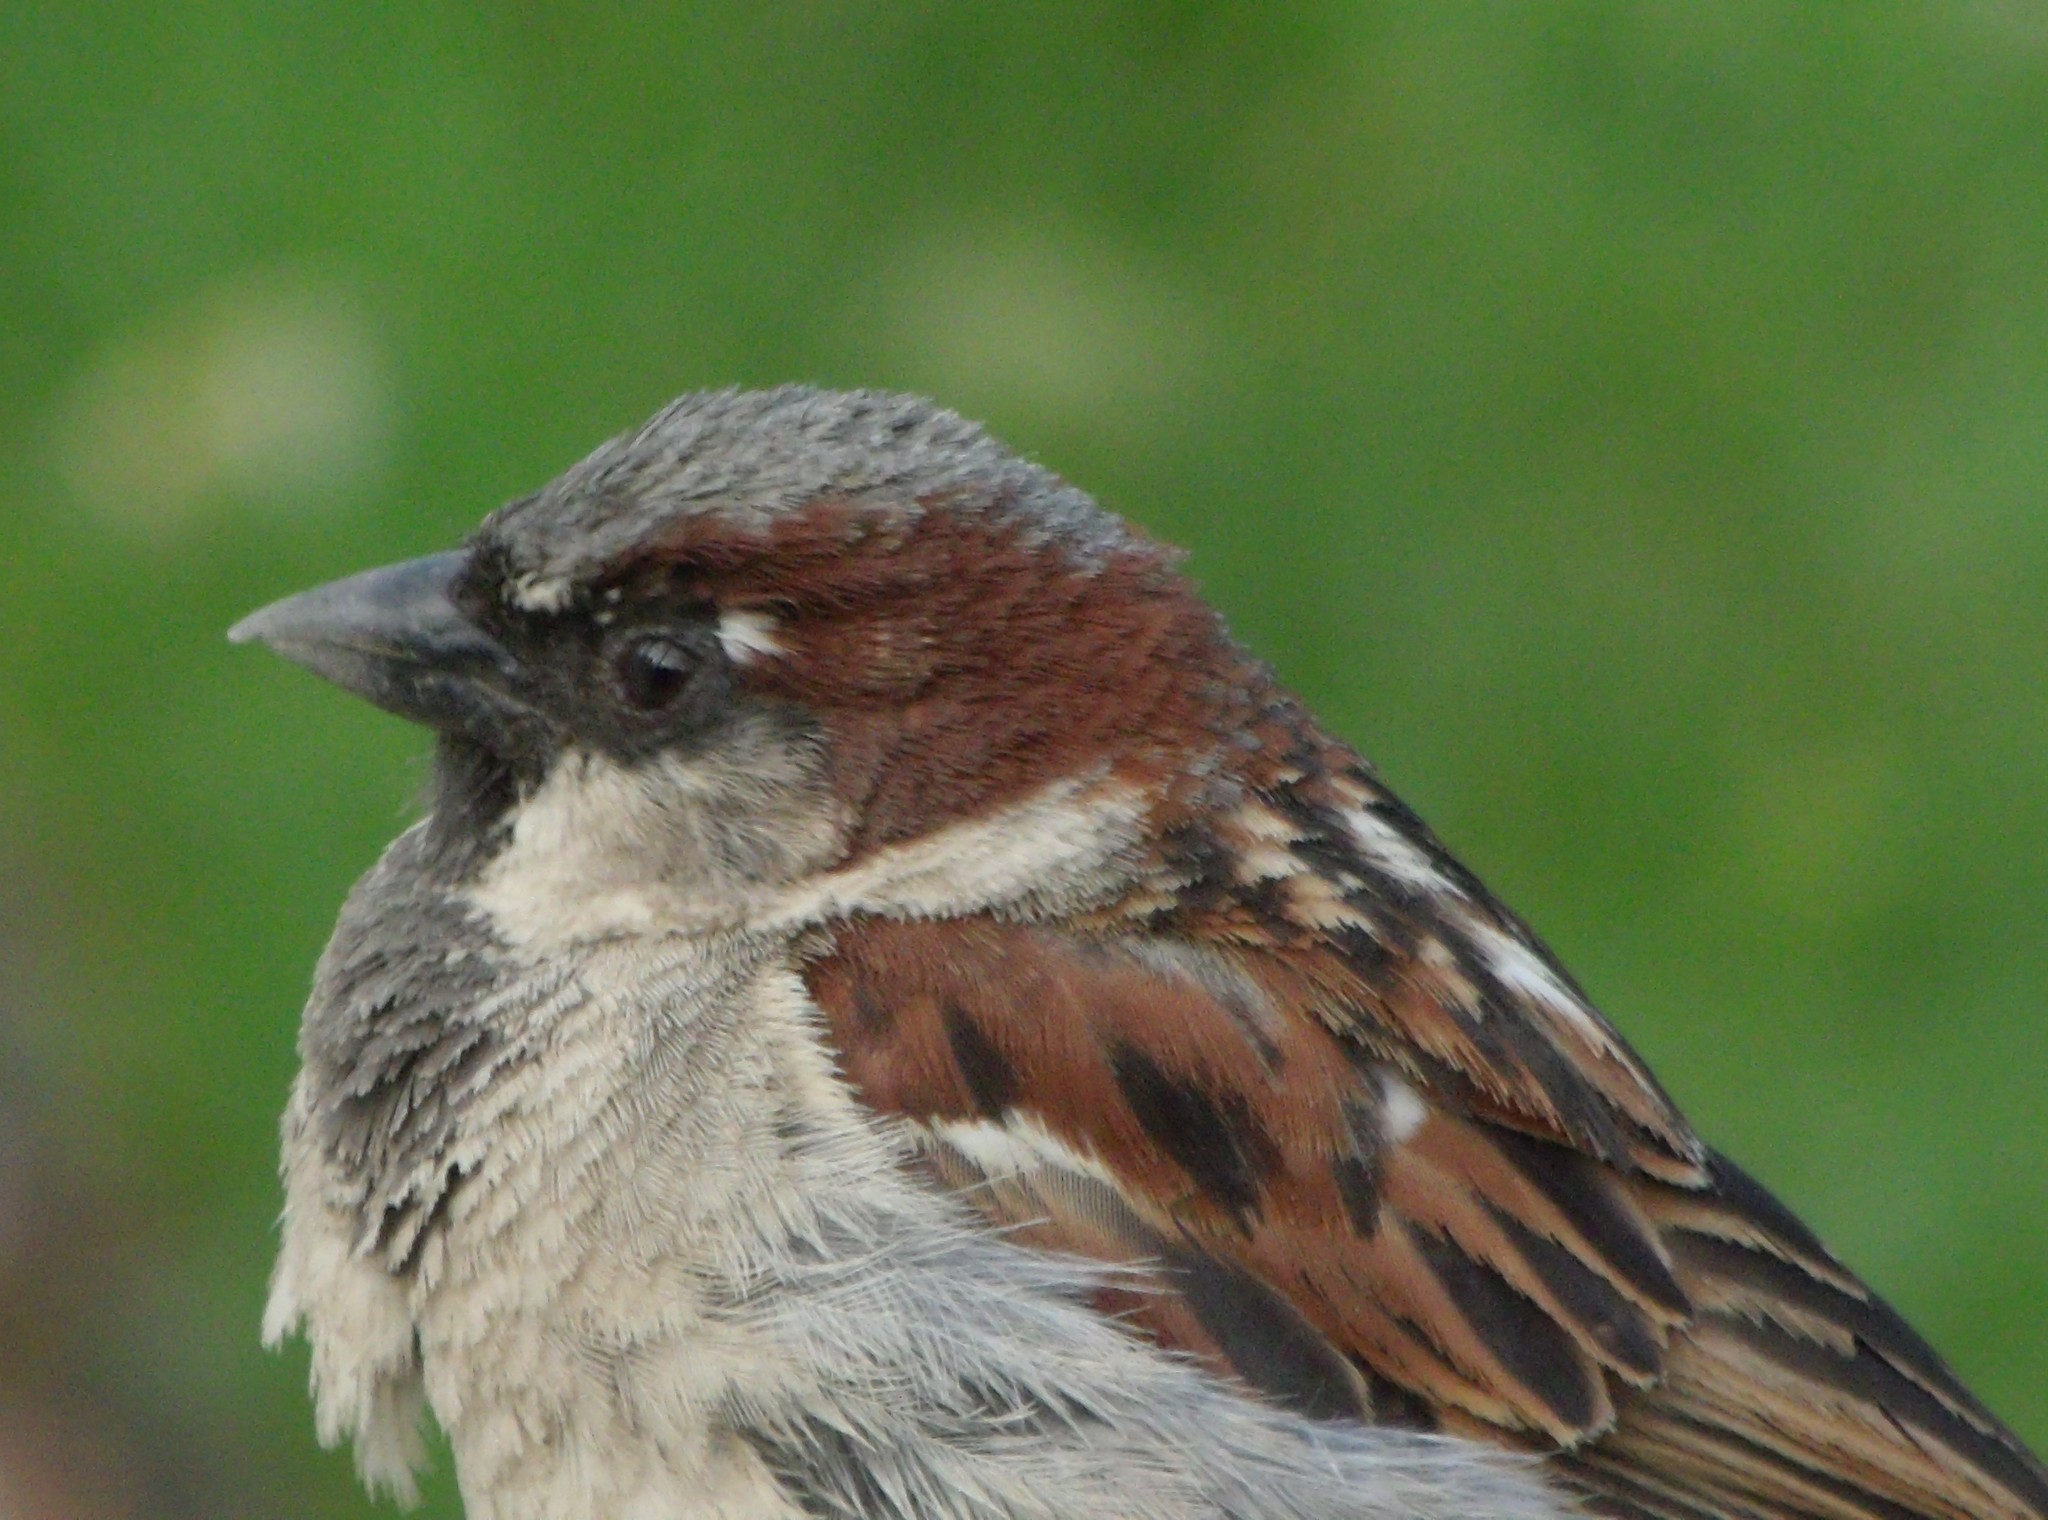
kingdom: Animalia
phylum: Chordata
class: Aves
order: Passeriformes
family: Passeridae
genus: Passer
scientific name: Passer domesticus
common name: House sparrow
